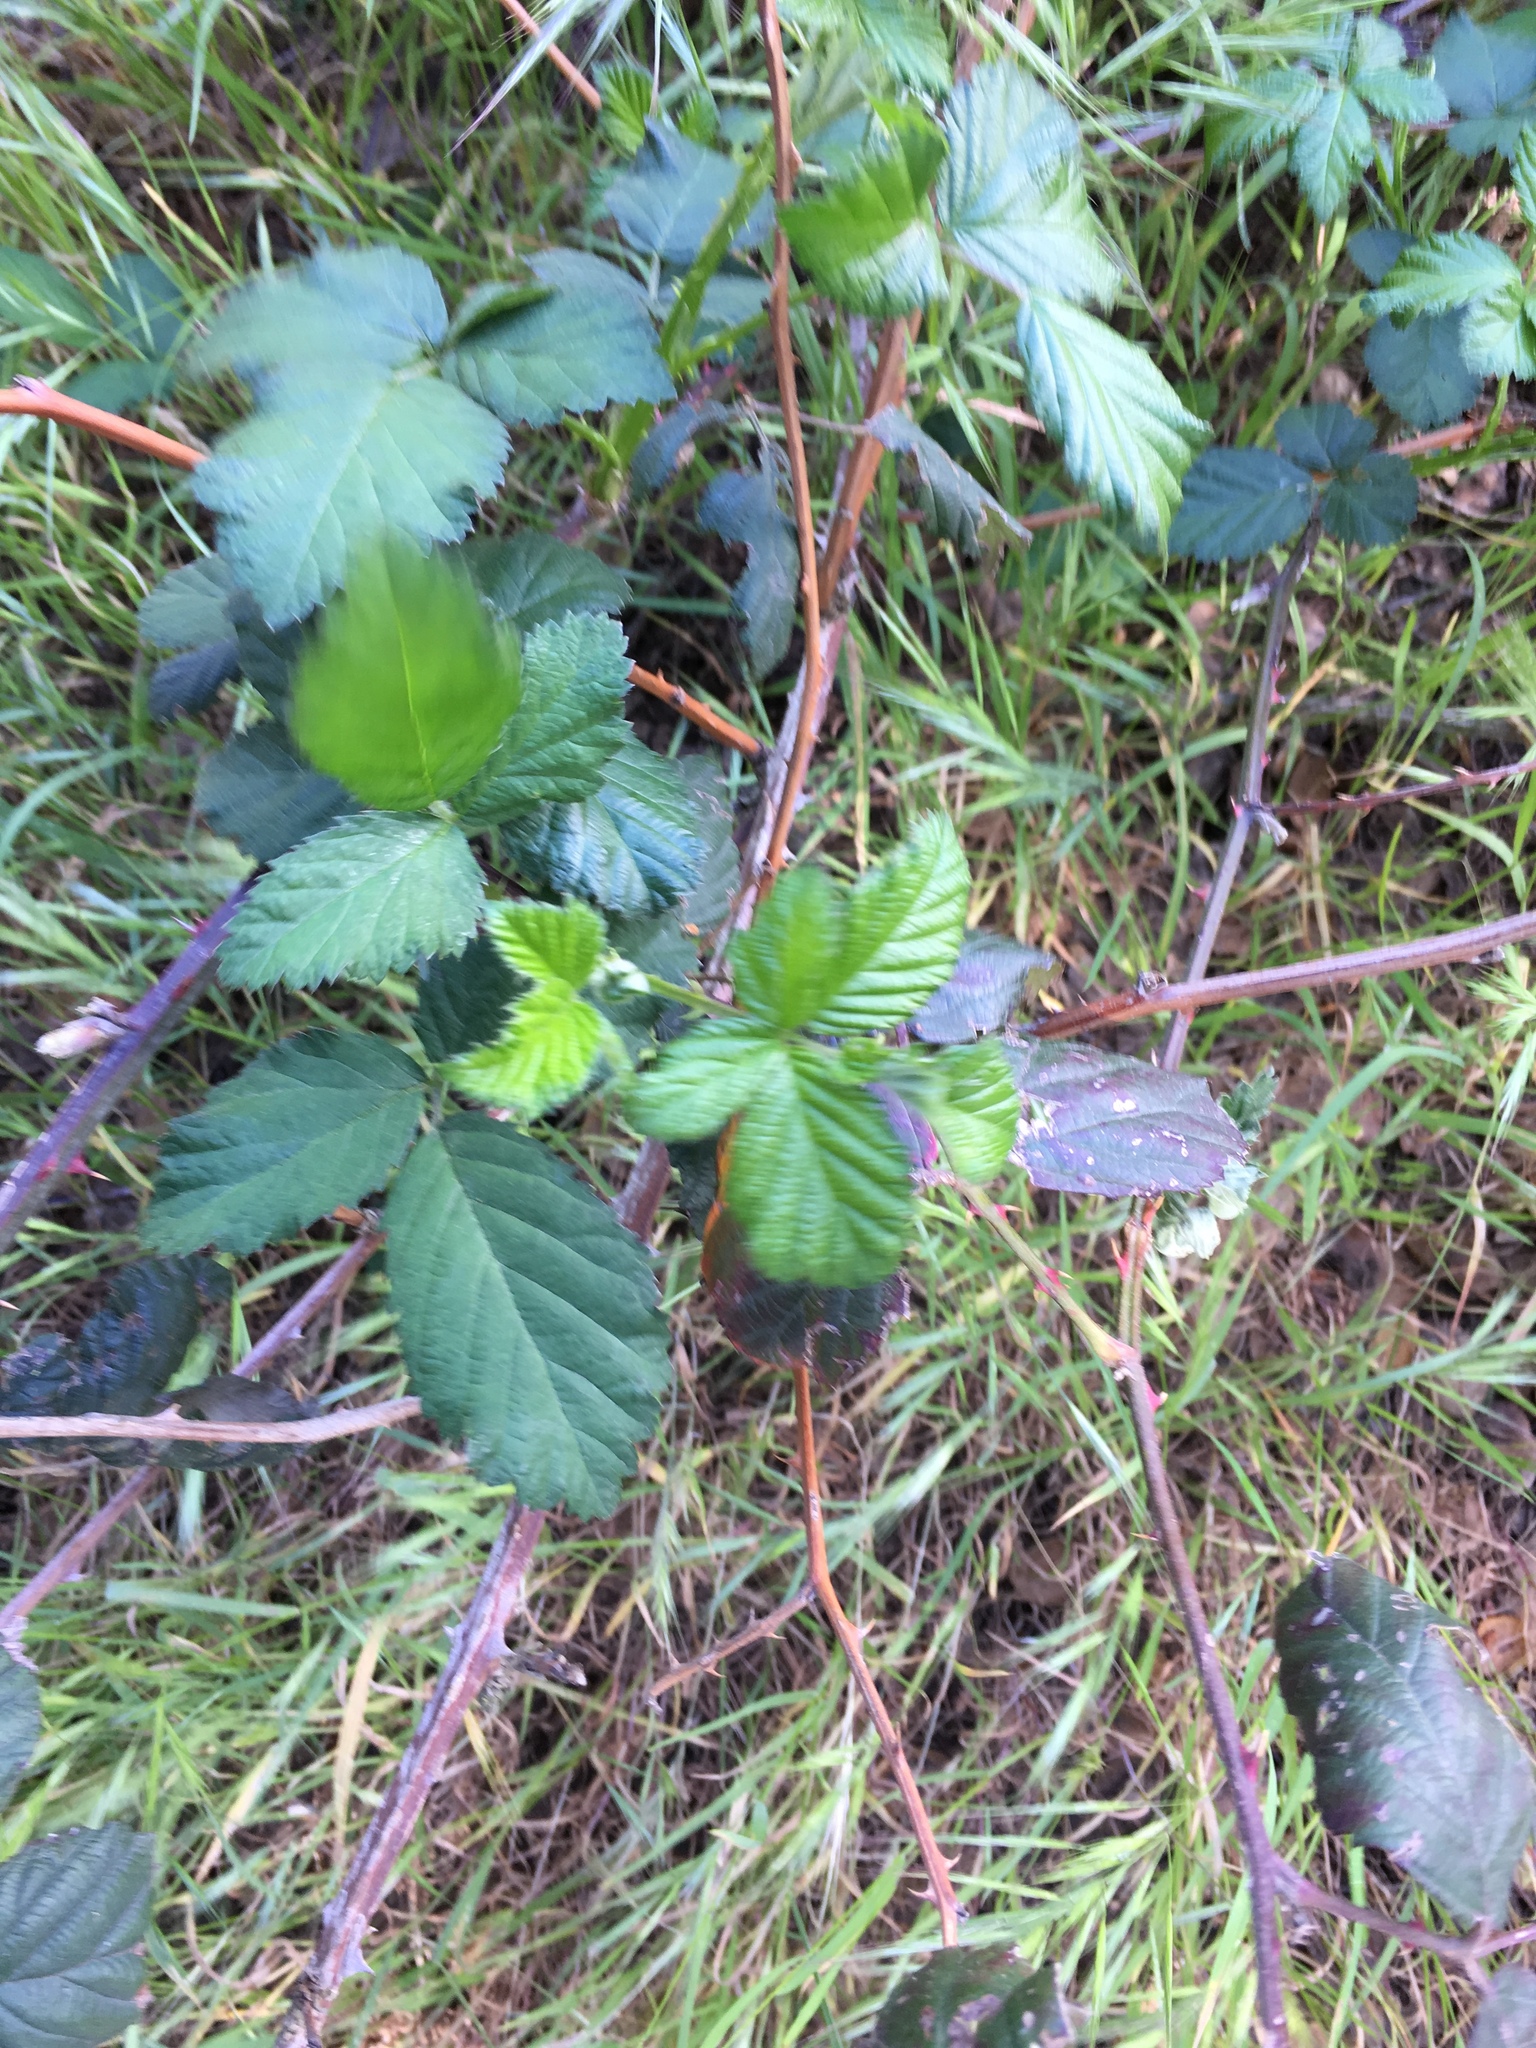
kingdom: Plantae
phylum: Tracheophyta
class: Magnoliopsida
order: Rosales
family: Rosaceae
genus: Rubus
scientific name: Rubus armeniacus
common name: Himalayan blackberry
